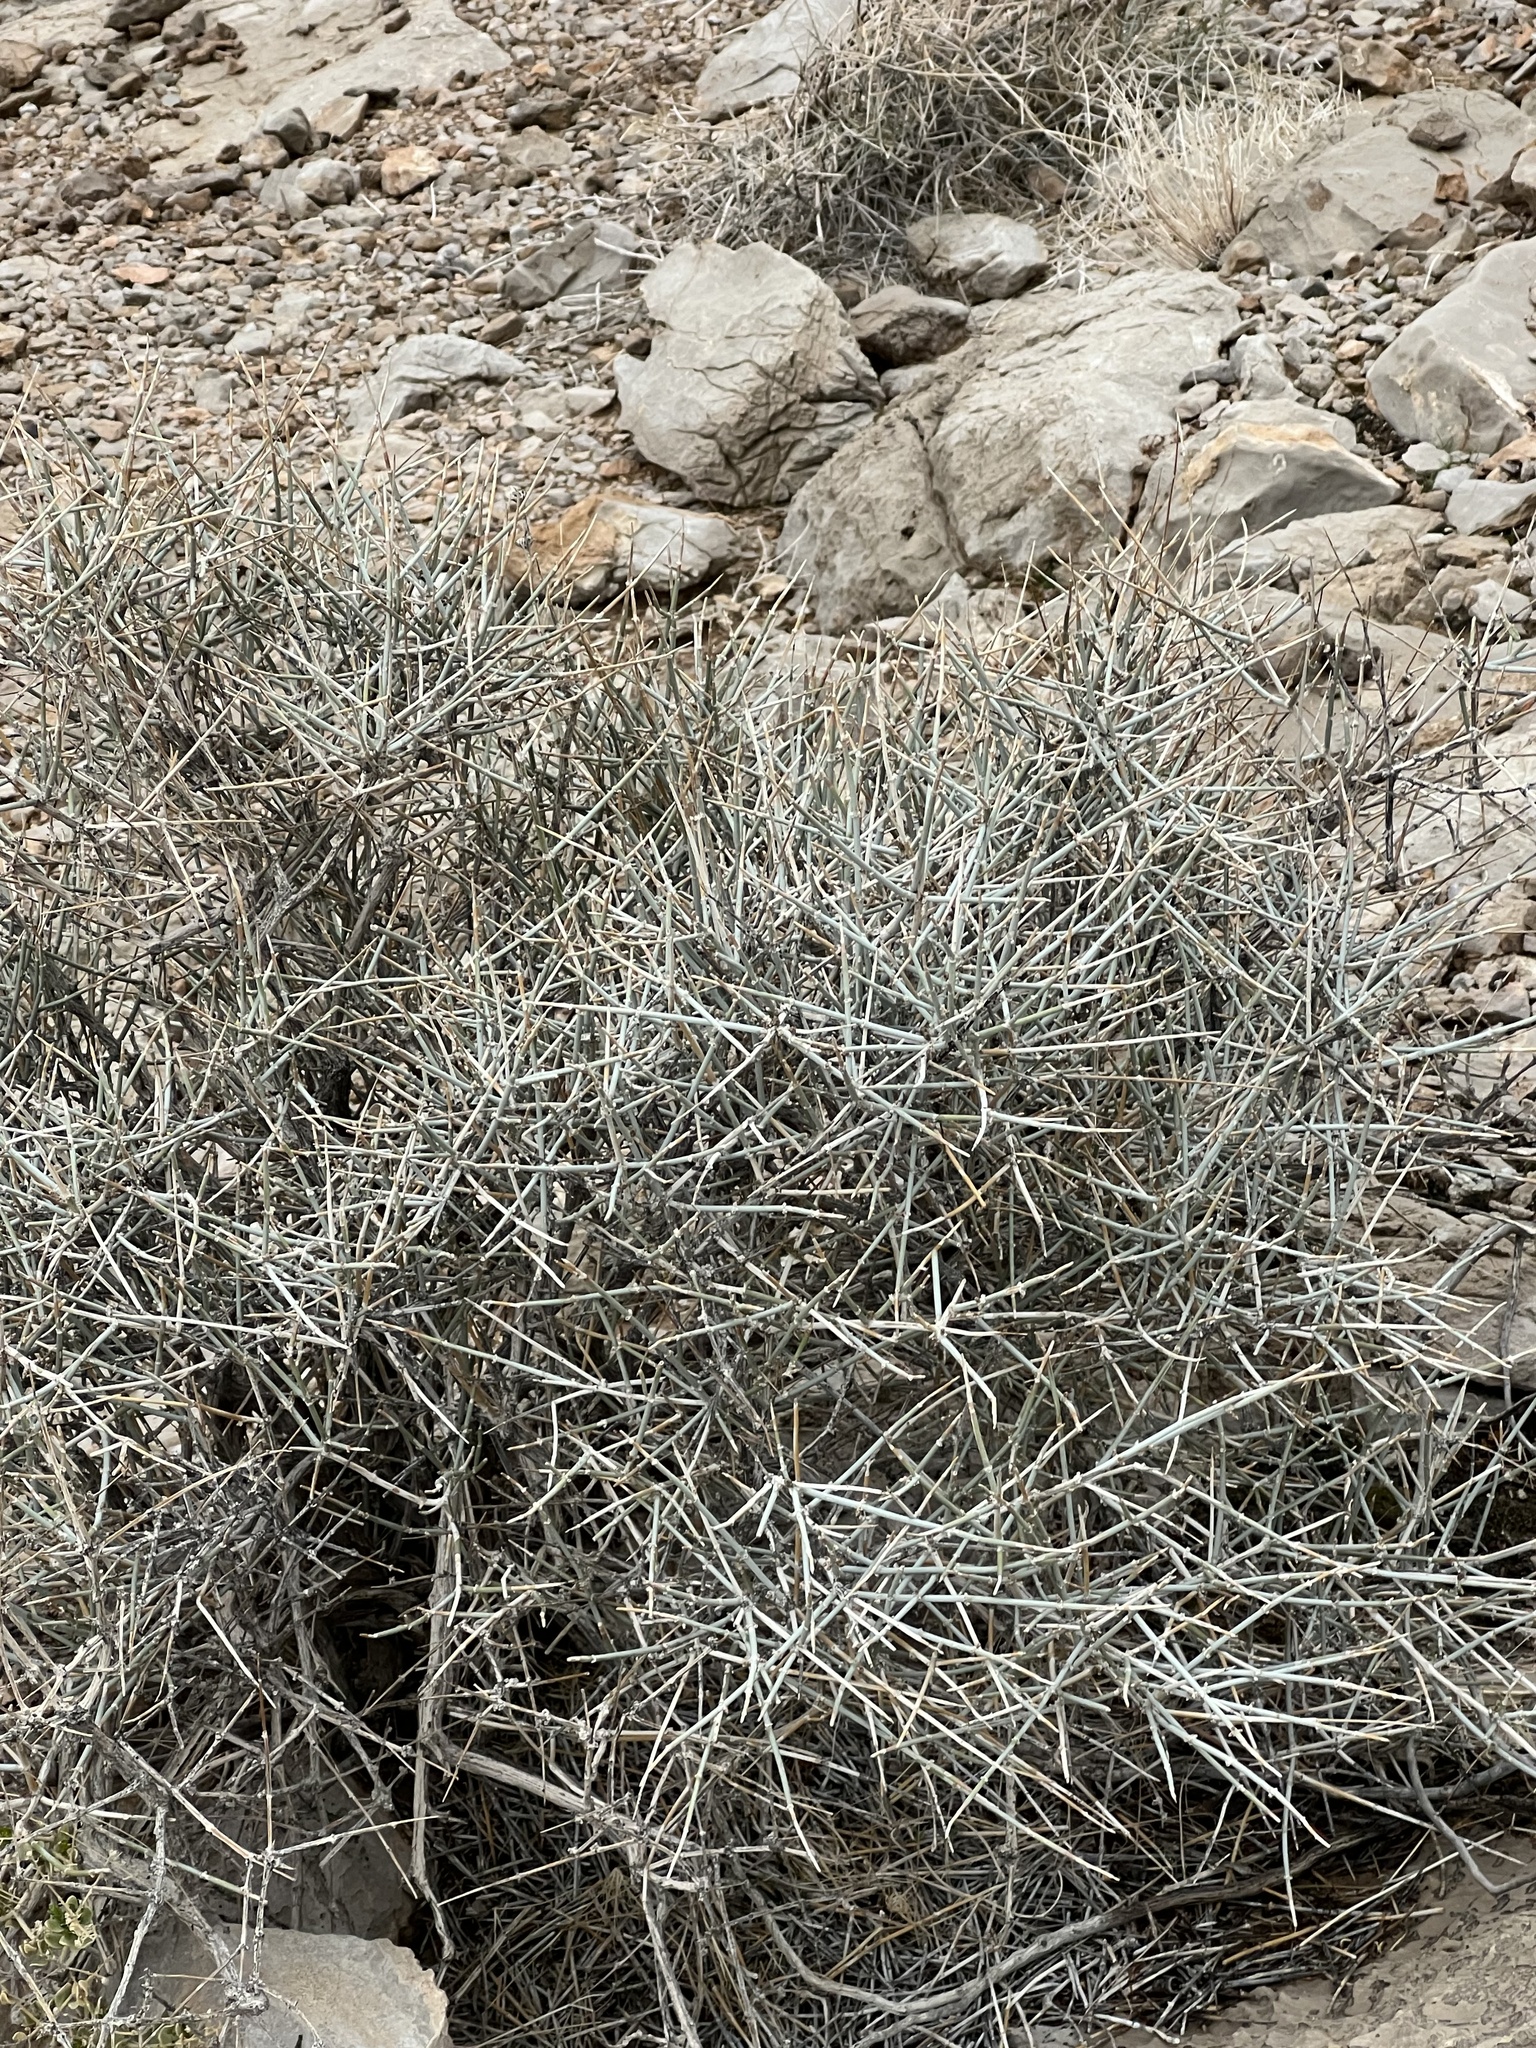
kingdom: Plantae
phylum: Tracheophyta
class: Gnetopsida
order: Ephedrales
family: Ephedraceae
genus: Ephedra
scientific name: Ephedra nevadensis
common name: Gray ephedra
